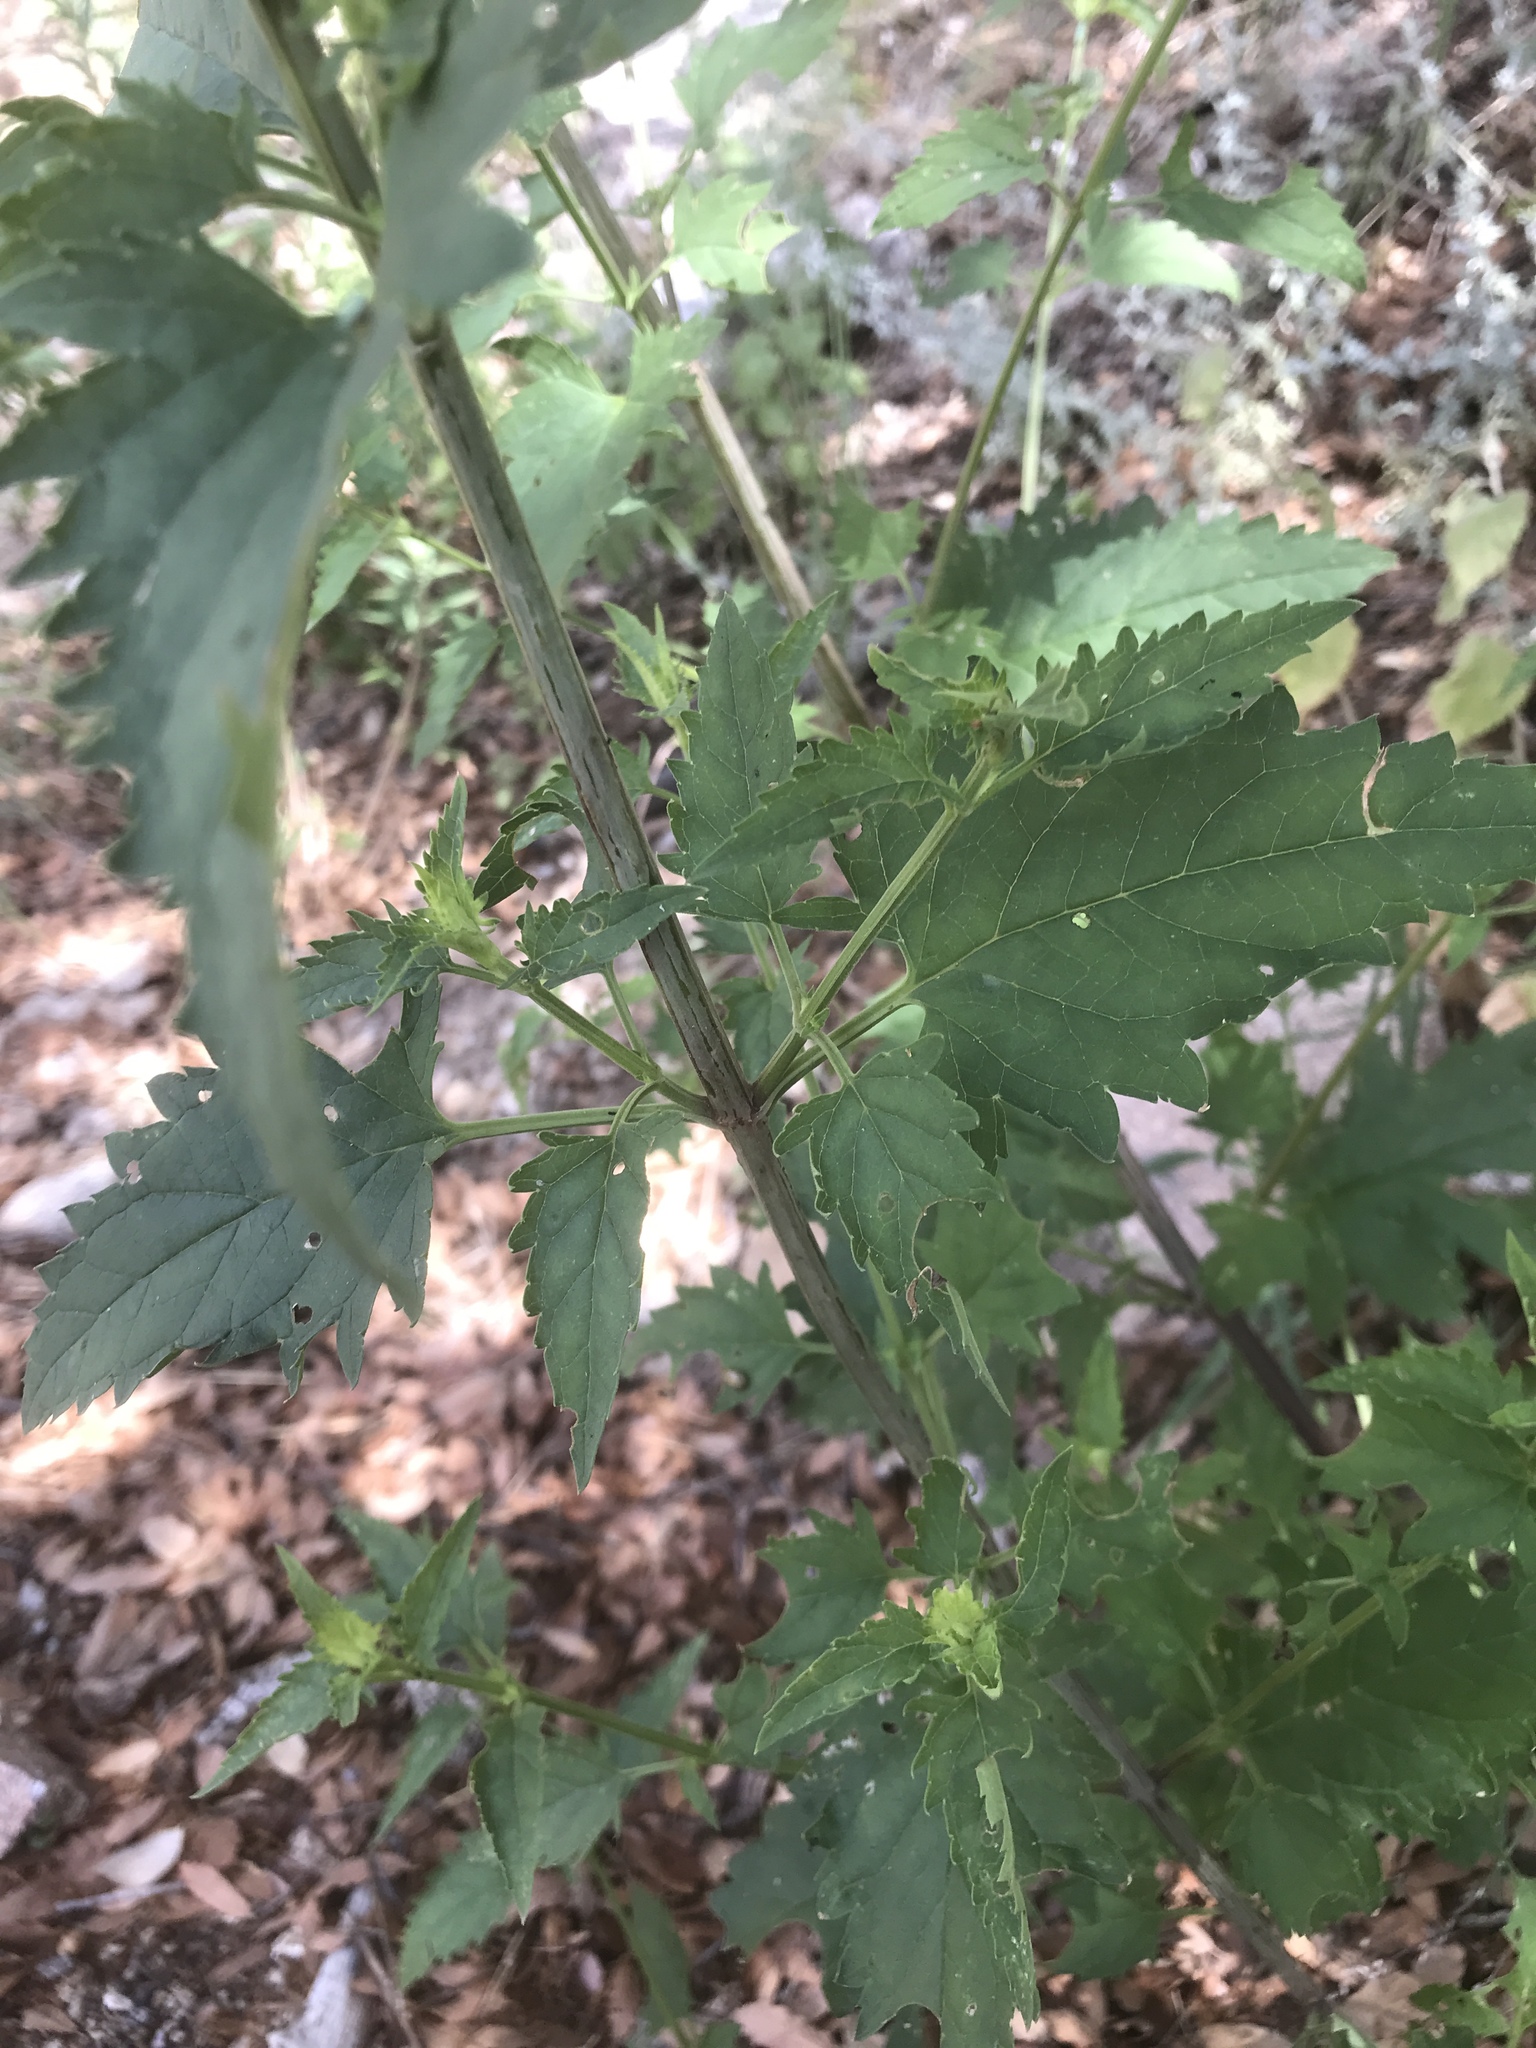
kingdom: Plantae
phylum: Tracheophyta
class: Magnoliopsida
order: Lamiales
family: Scrophulariaceae
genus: Scrophularia
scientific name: Scrophularia parviflora
